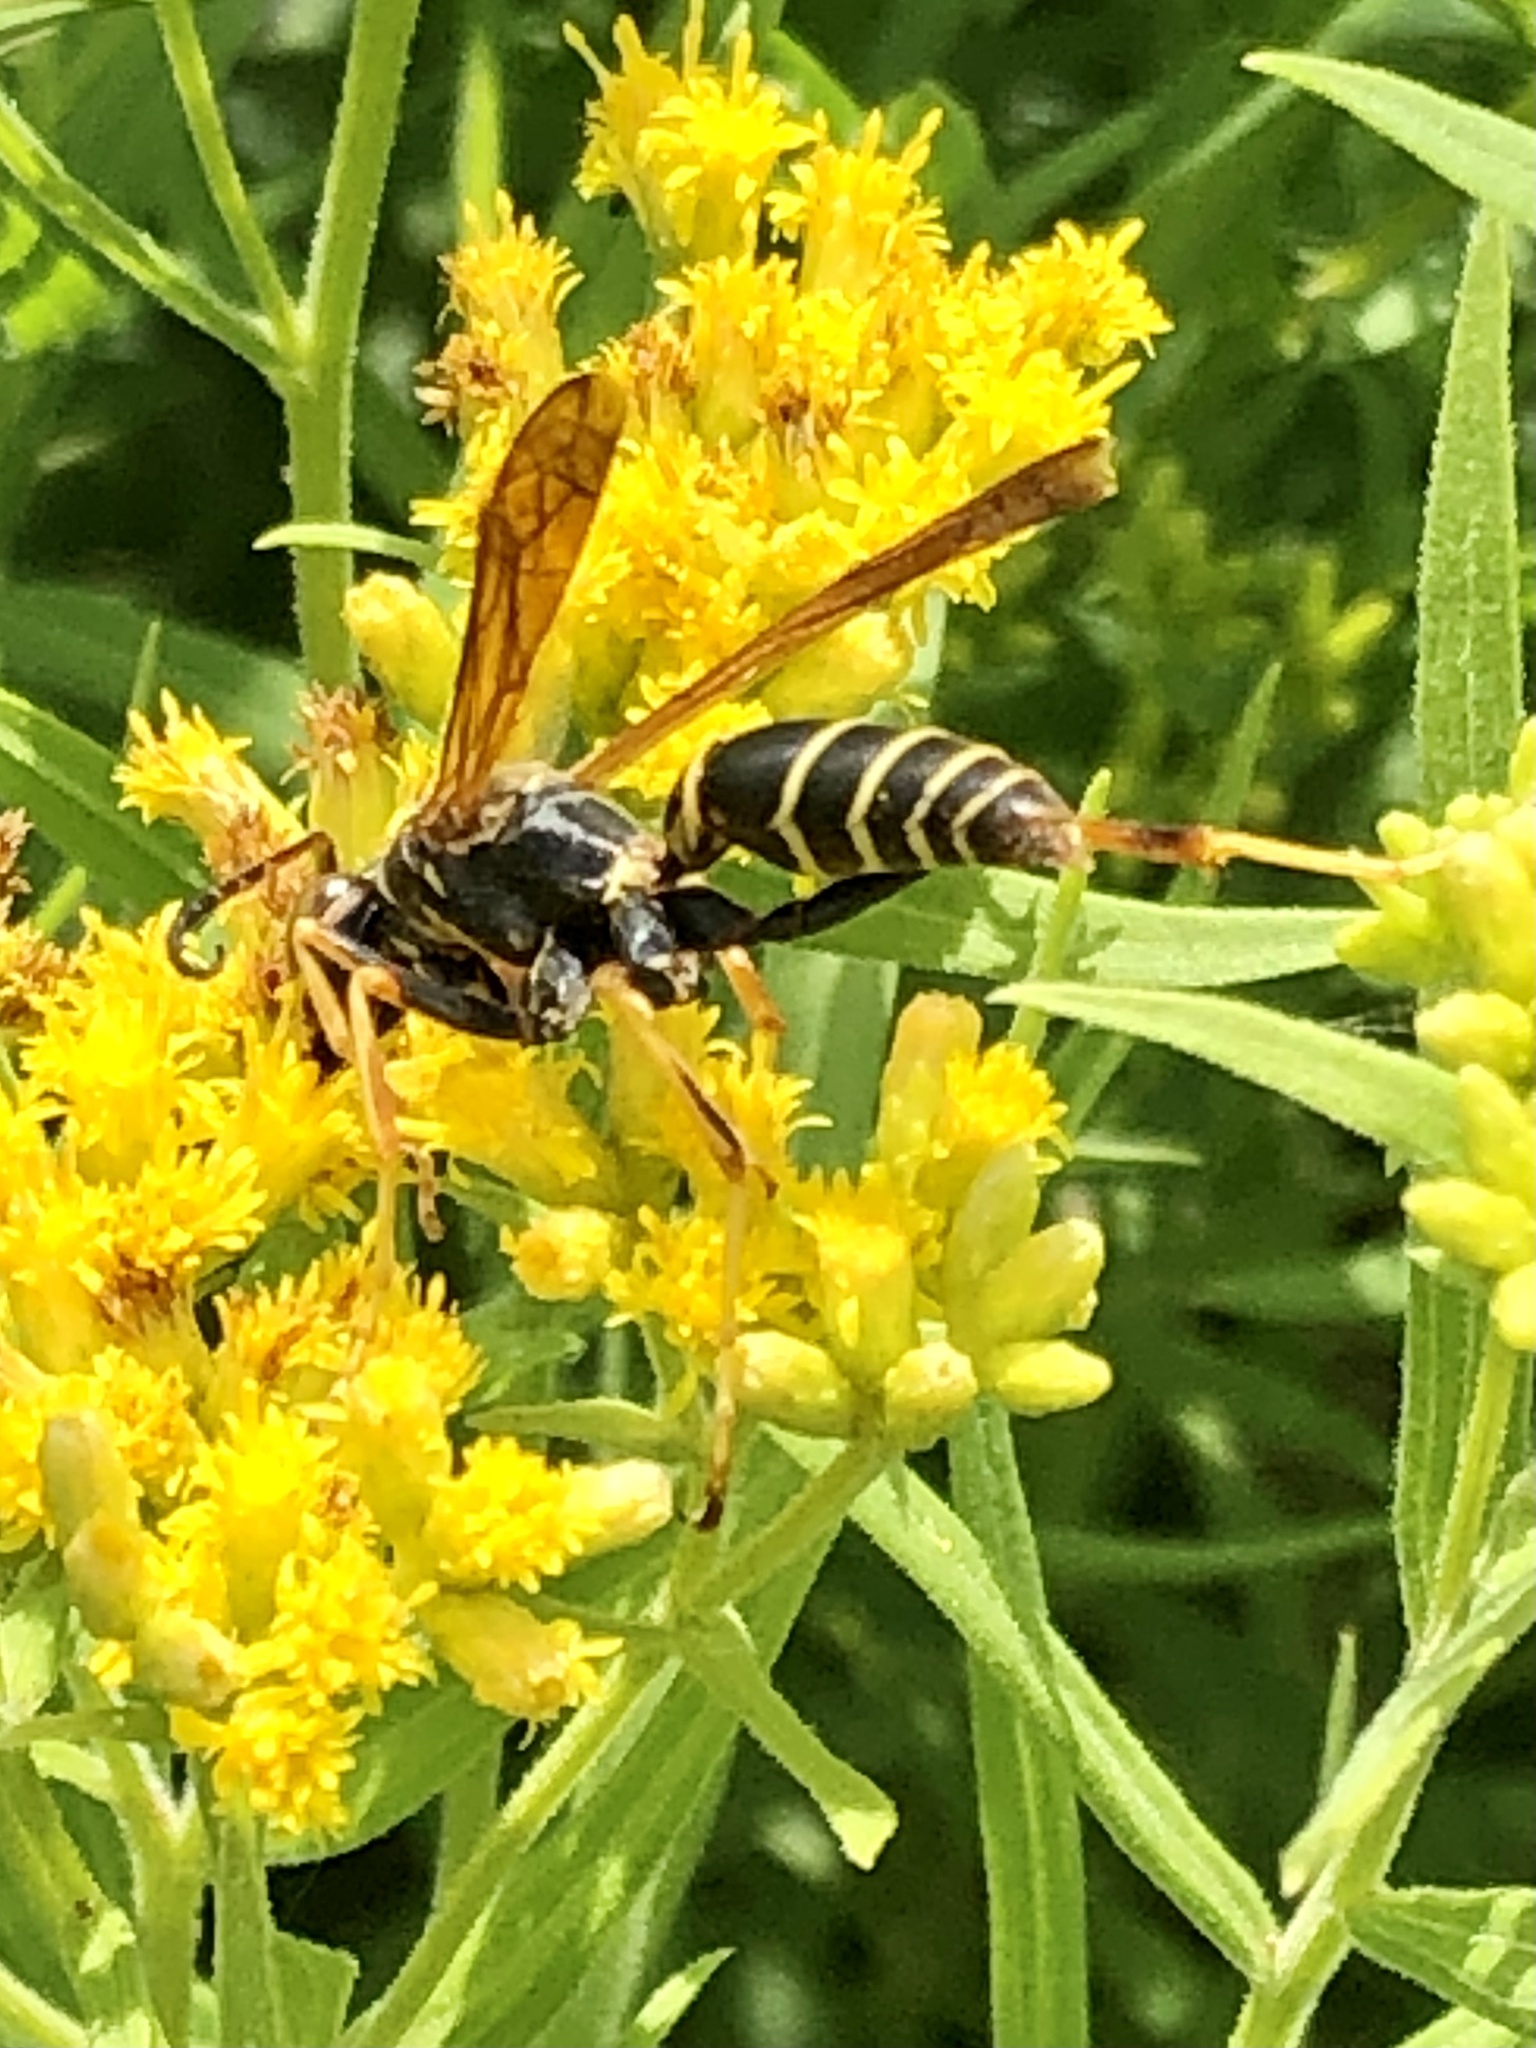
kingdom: Animalia
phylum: Arthropoda
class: Insecta
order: Hymenoptera
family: Eumenidae
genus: Polistes
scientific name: Polistes fuscatus
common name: Dark paper wasp
